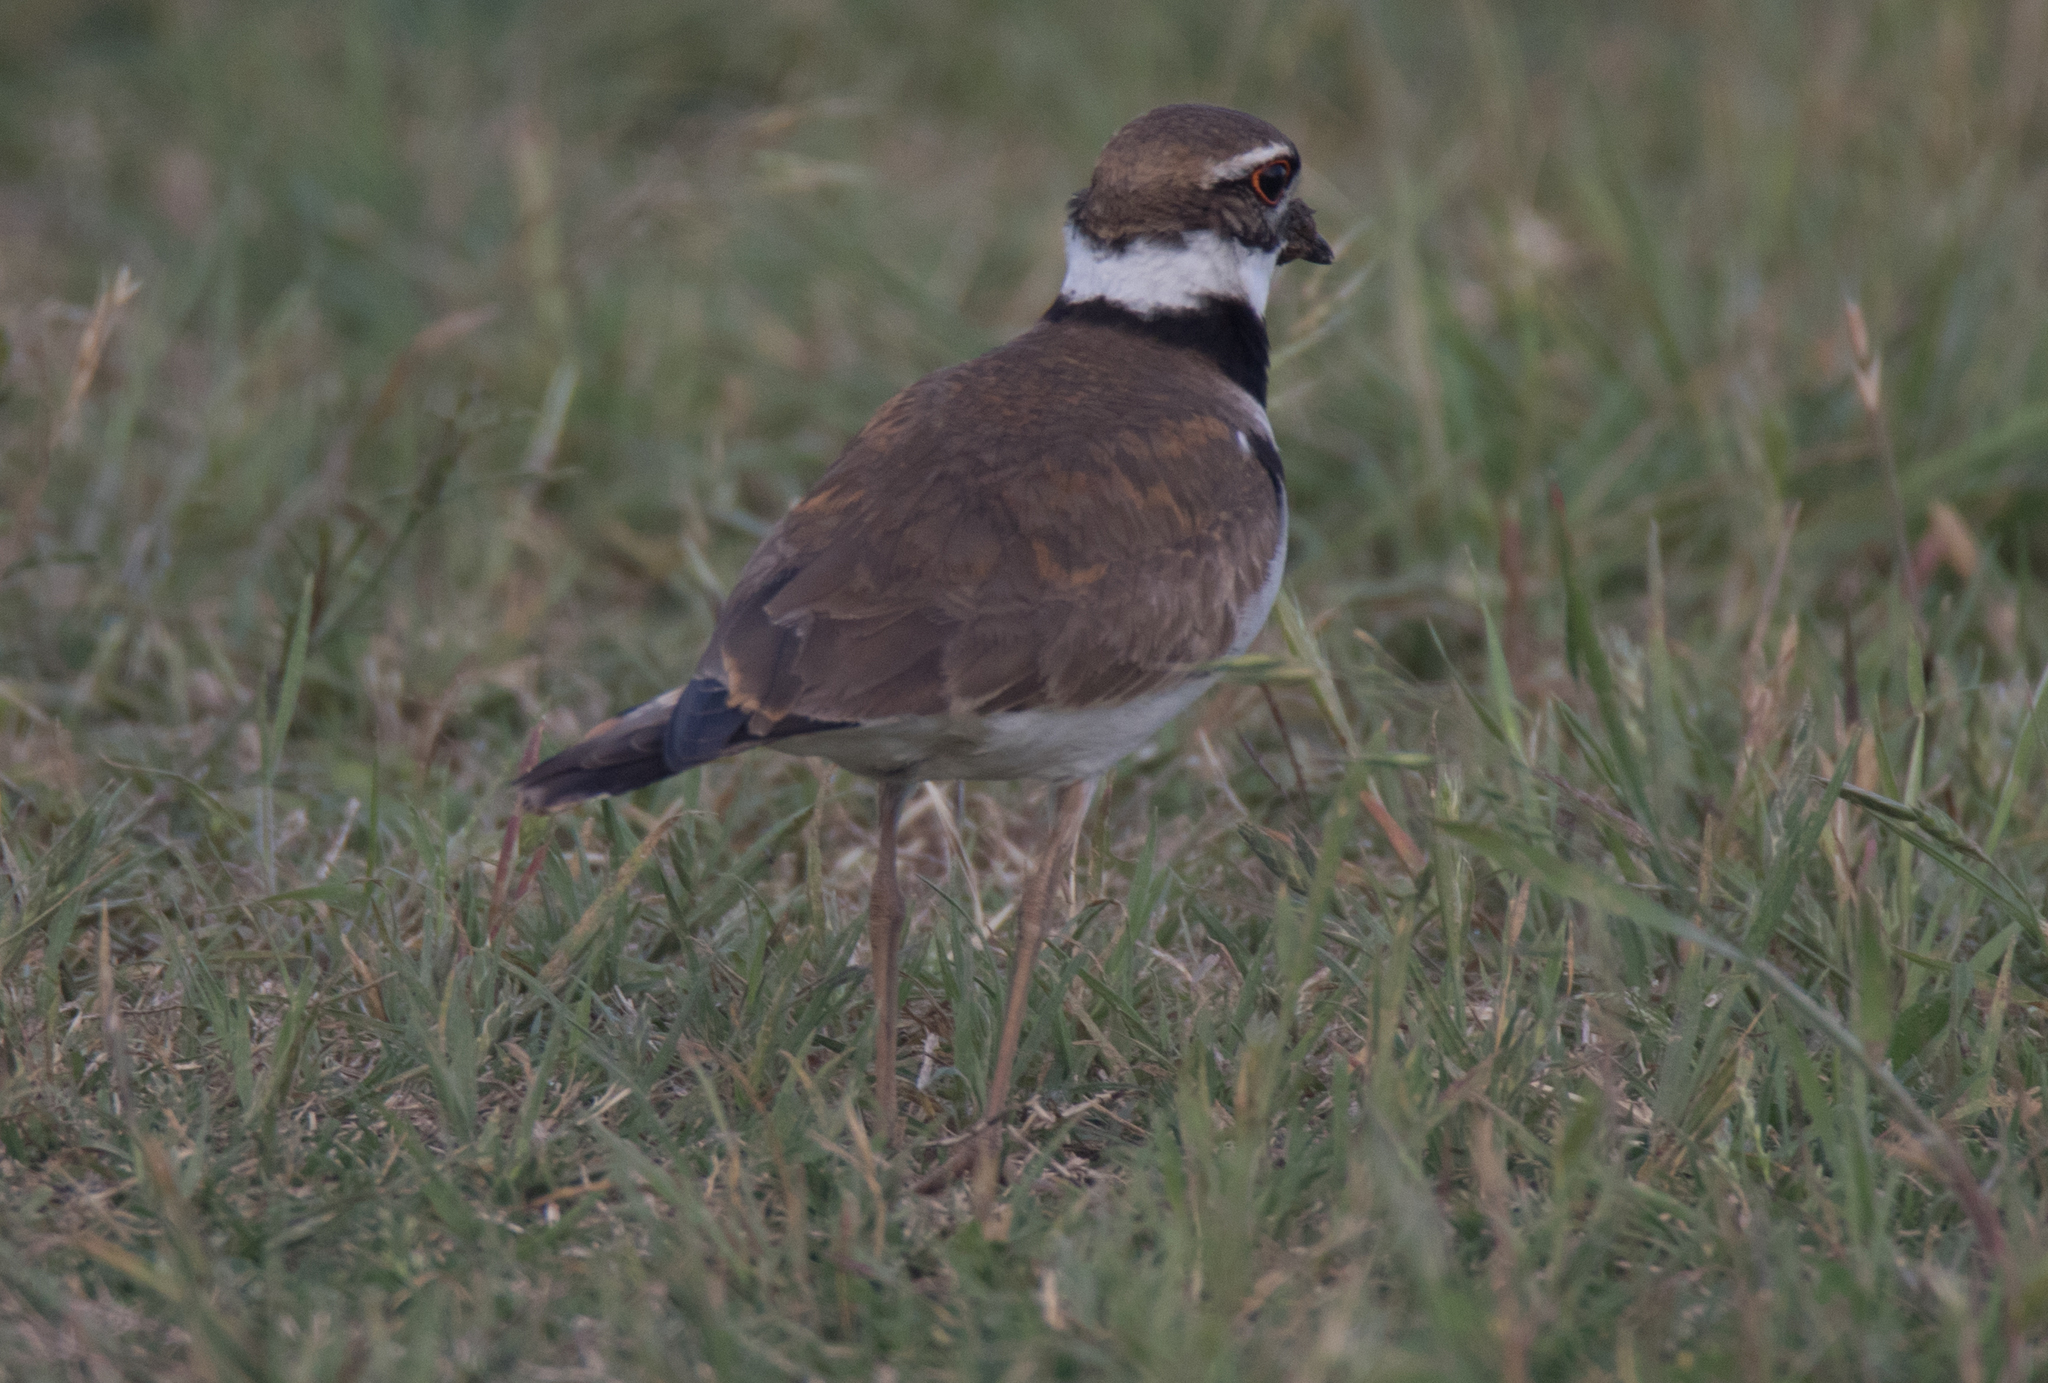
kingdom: Animalia
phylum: Chordata
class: Aves
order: Charadriiformes
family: Charadriidae
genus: Charadrius
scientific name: Charadrius vociferus
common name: Killdeer
